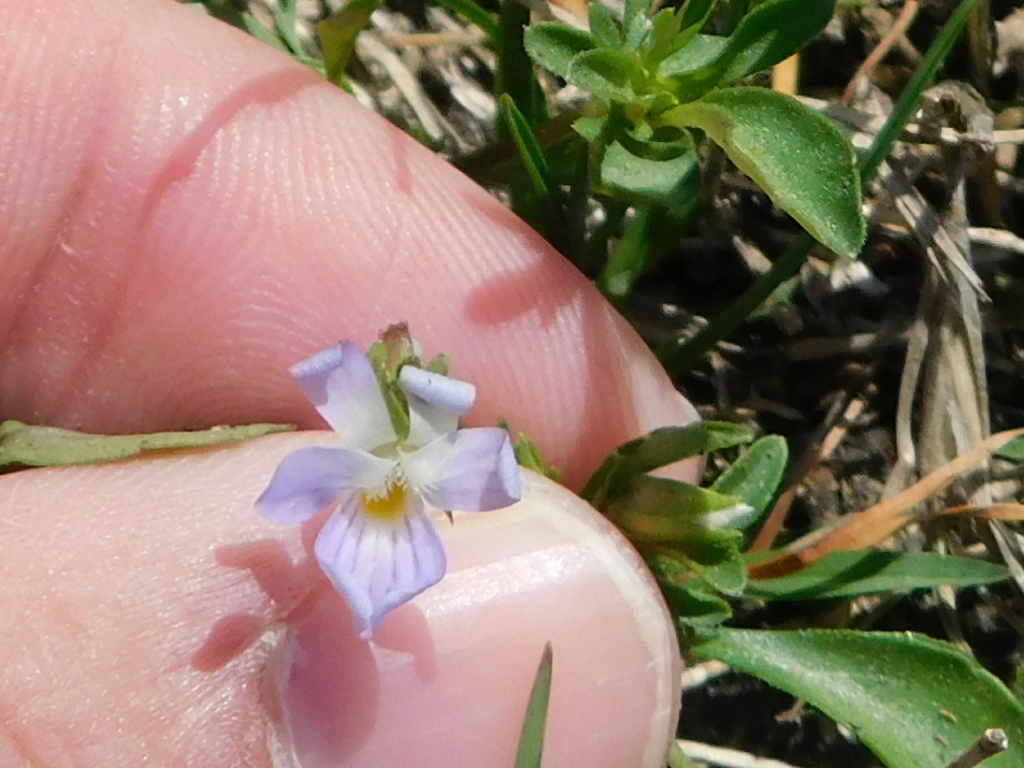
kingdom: Plantae
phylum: Tracheophyta
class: Magnoliopsida
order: Malpighiales
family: Violaceae
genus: Viola
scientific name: Viola rafinesquei
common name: American field pansy
